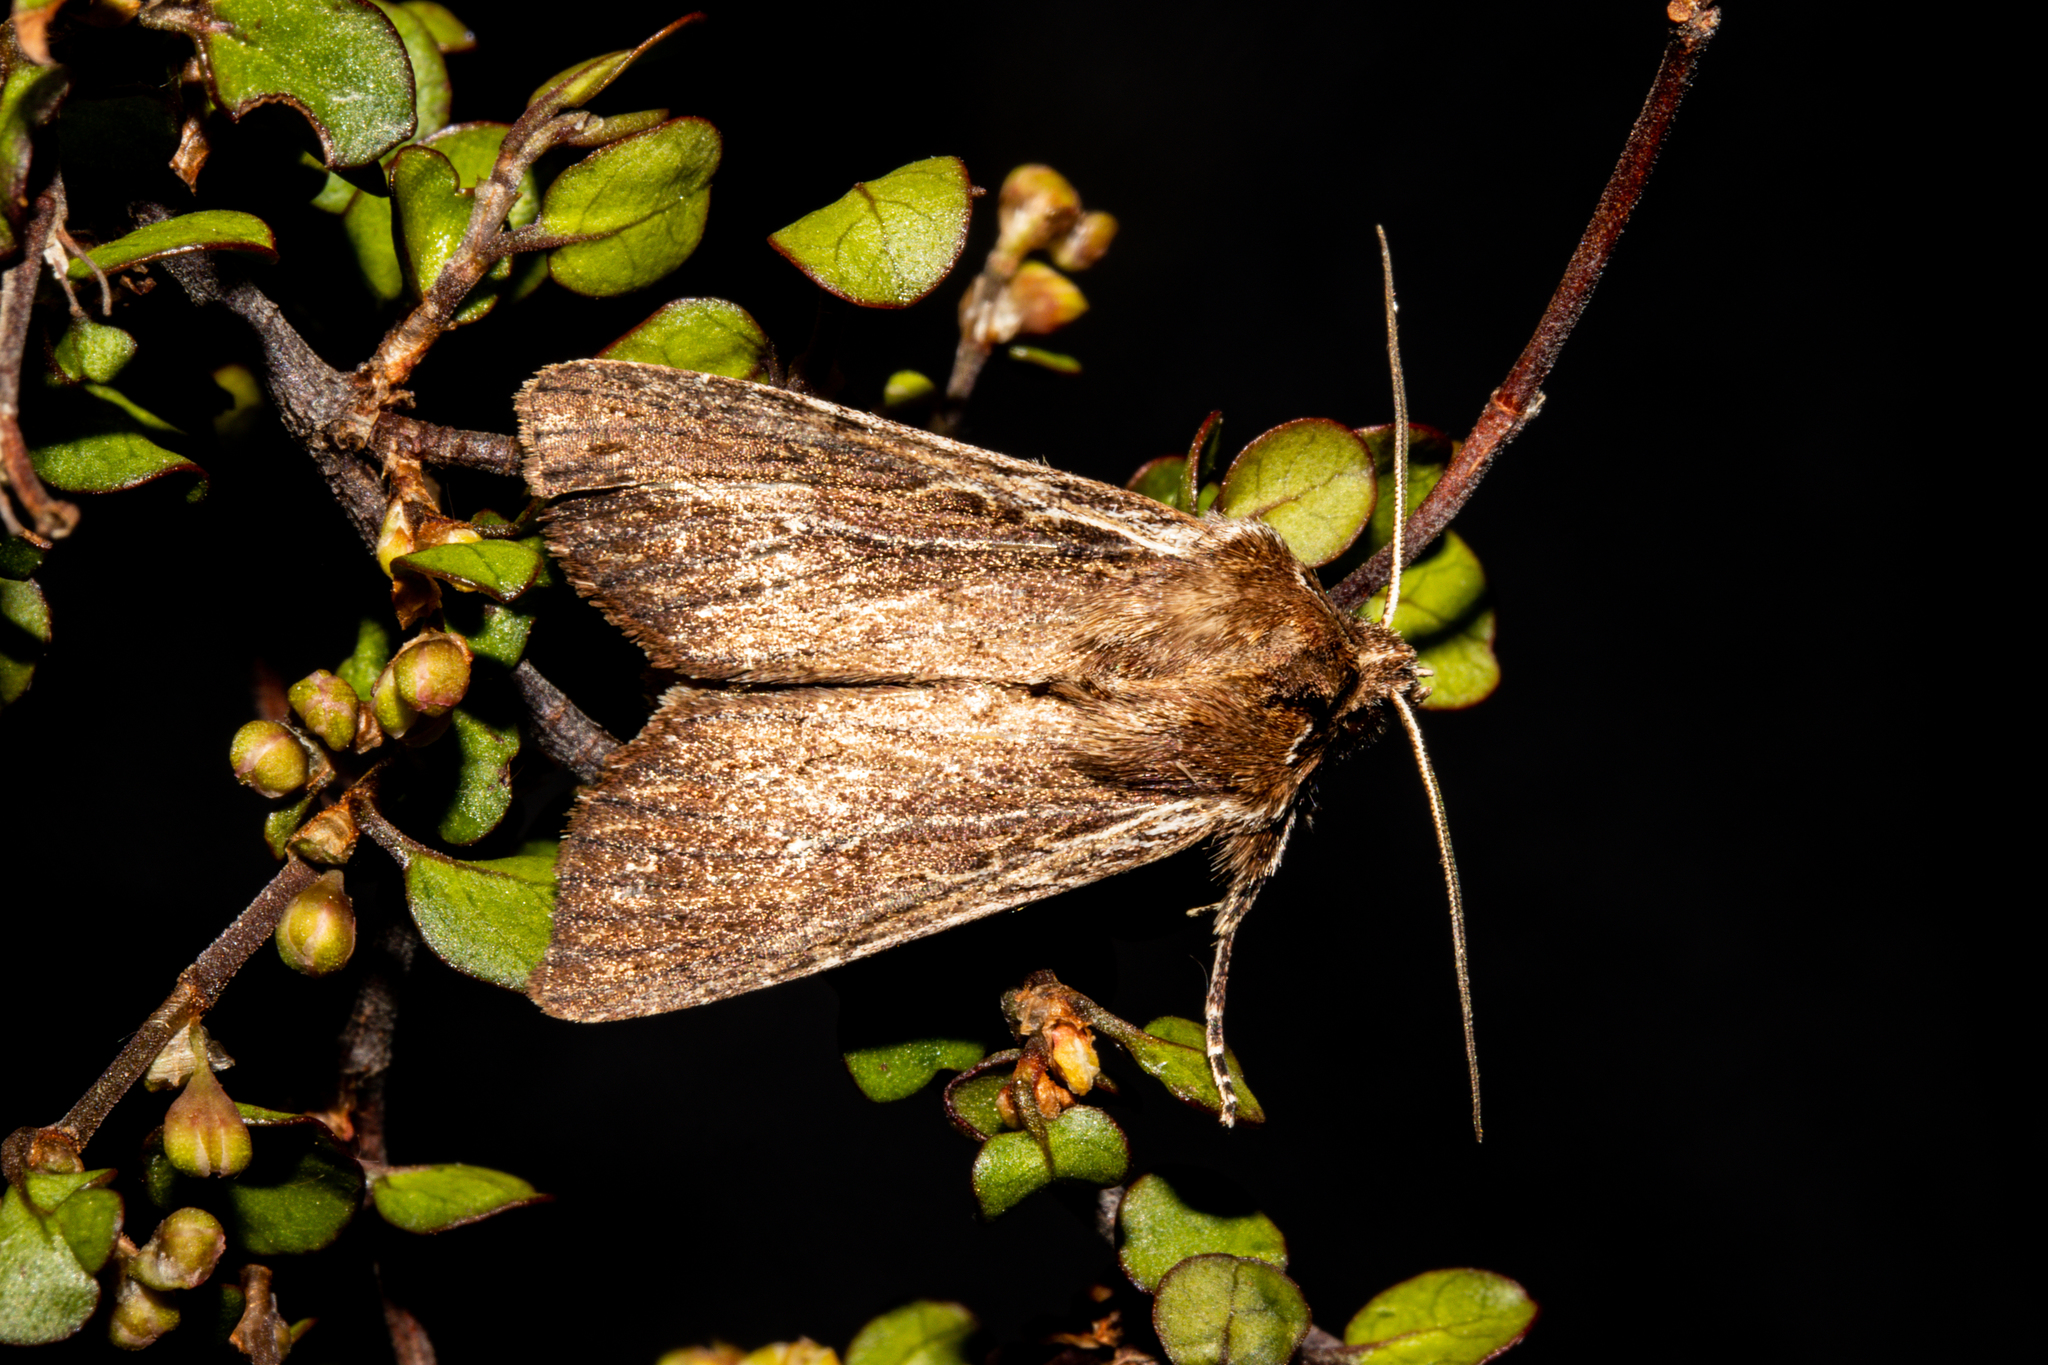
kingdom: Animalia
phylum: Arthropoda
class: Insecta
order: Lepidoptera
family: Noctuidae
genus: Ichneutica
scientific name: Ichneutica
